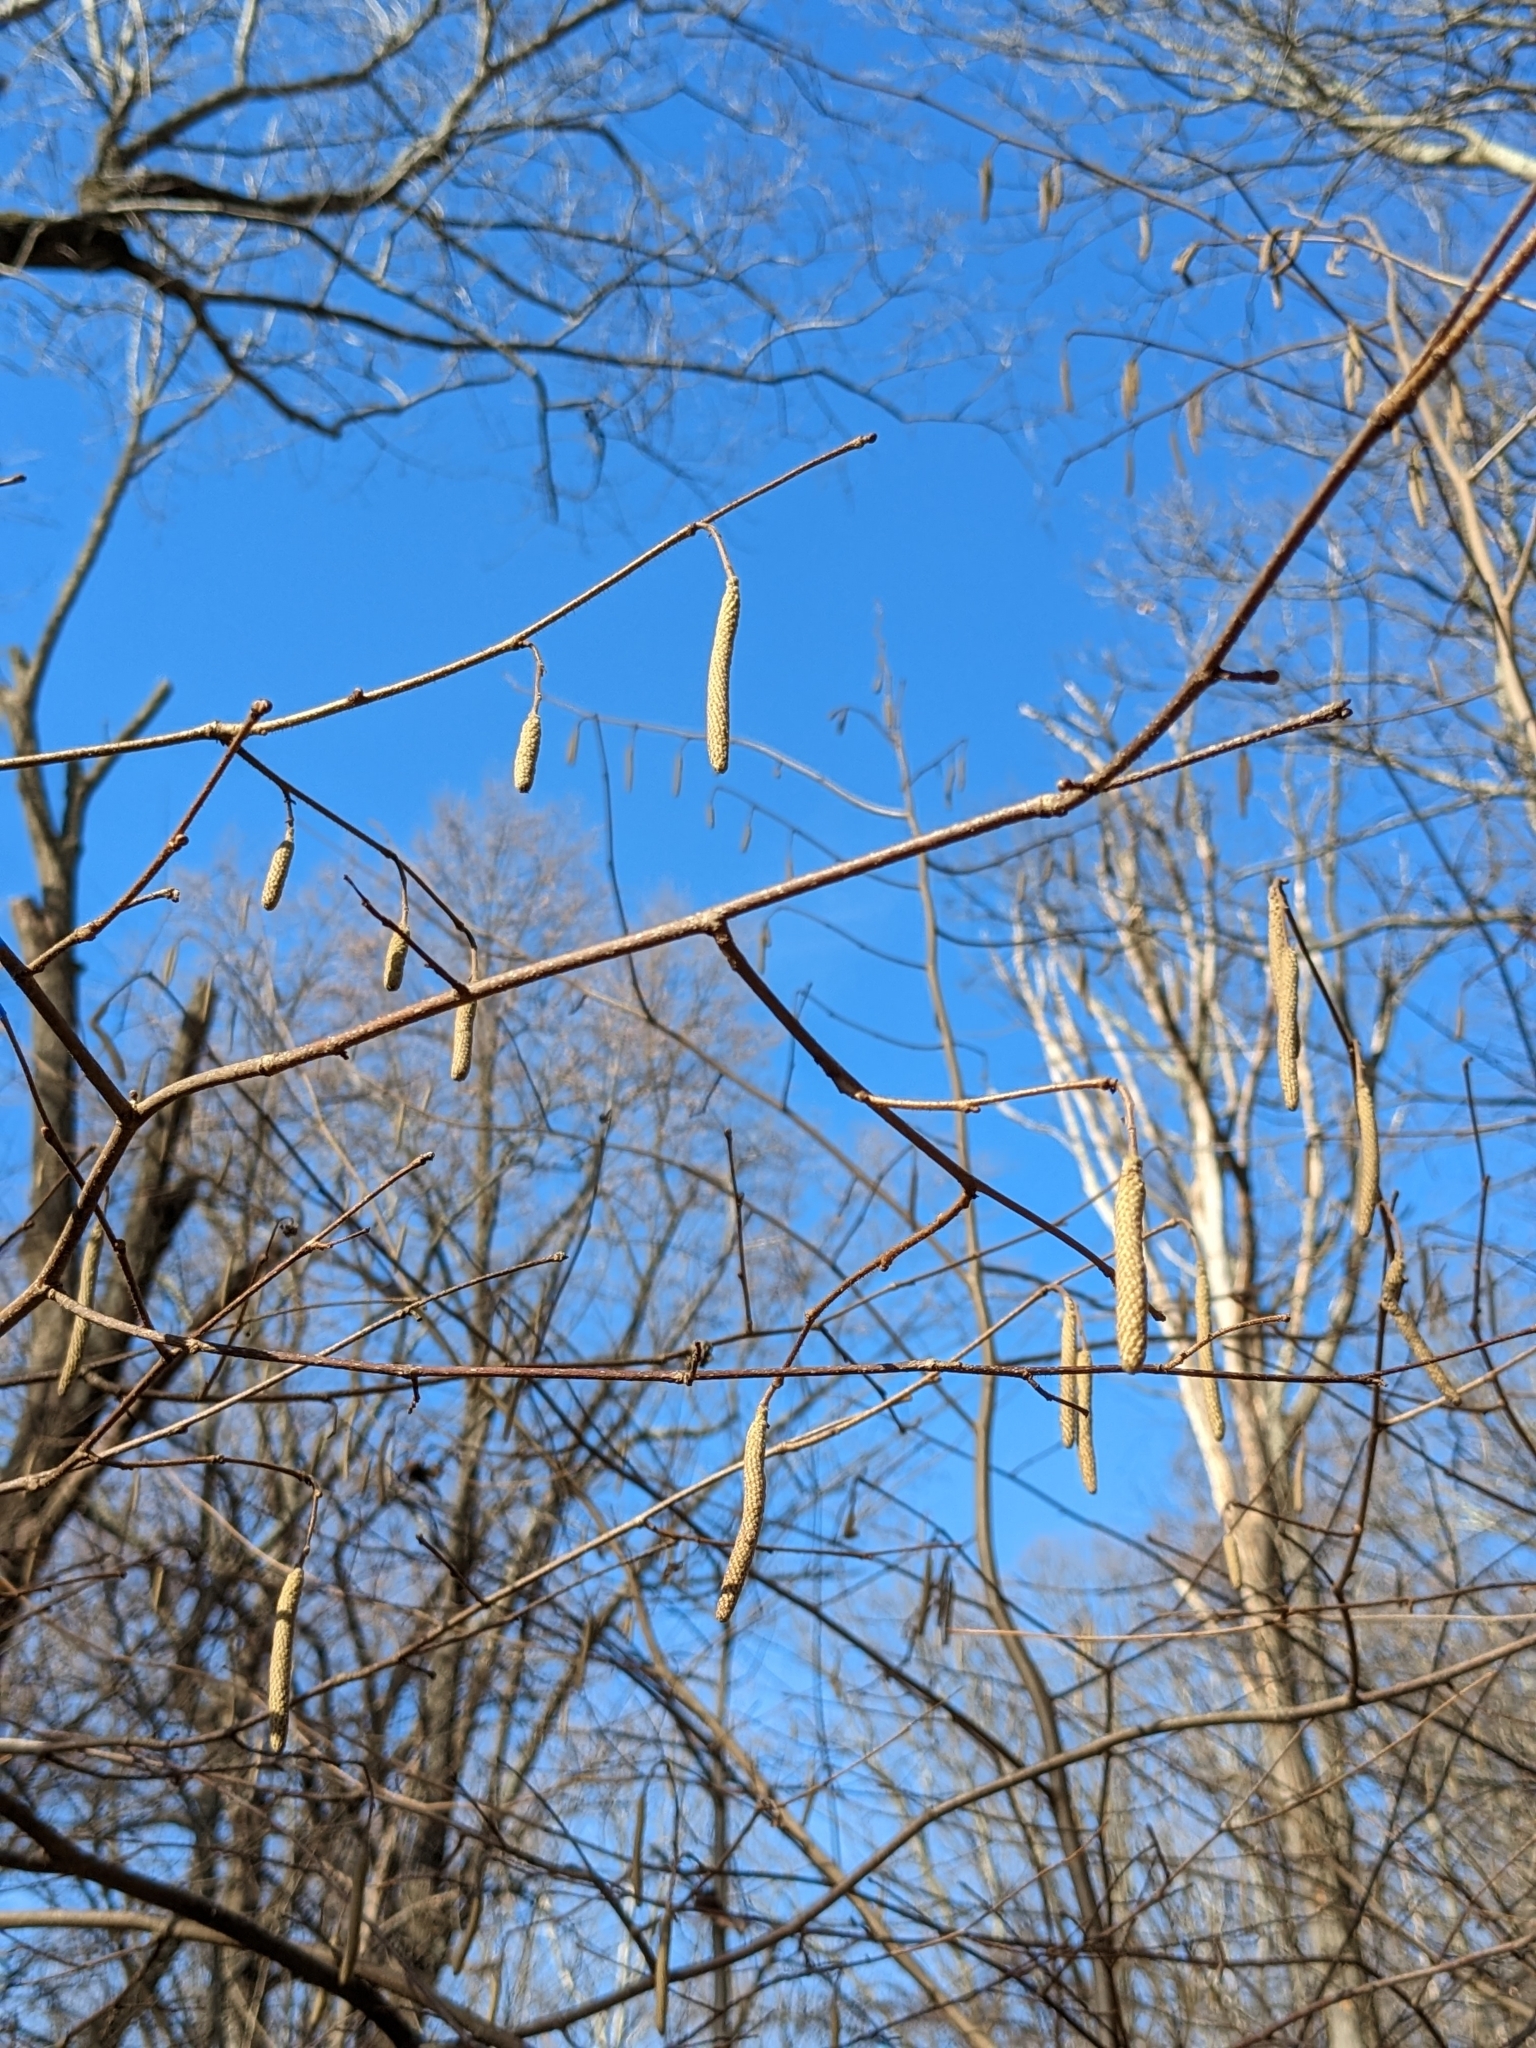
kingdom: Plantae
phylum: Tracheophyta
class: Magnoliopsida
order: Fagales
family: Betulaceae
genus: Corylus
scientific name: Corylus americana
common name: American hazel
